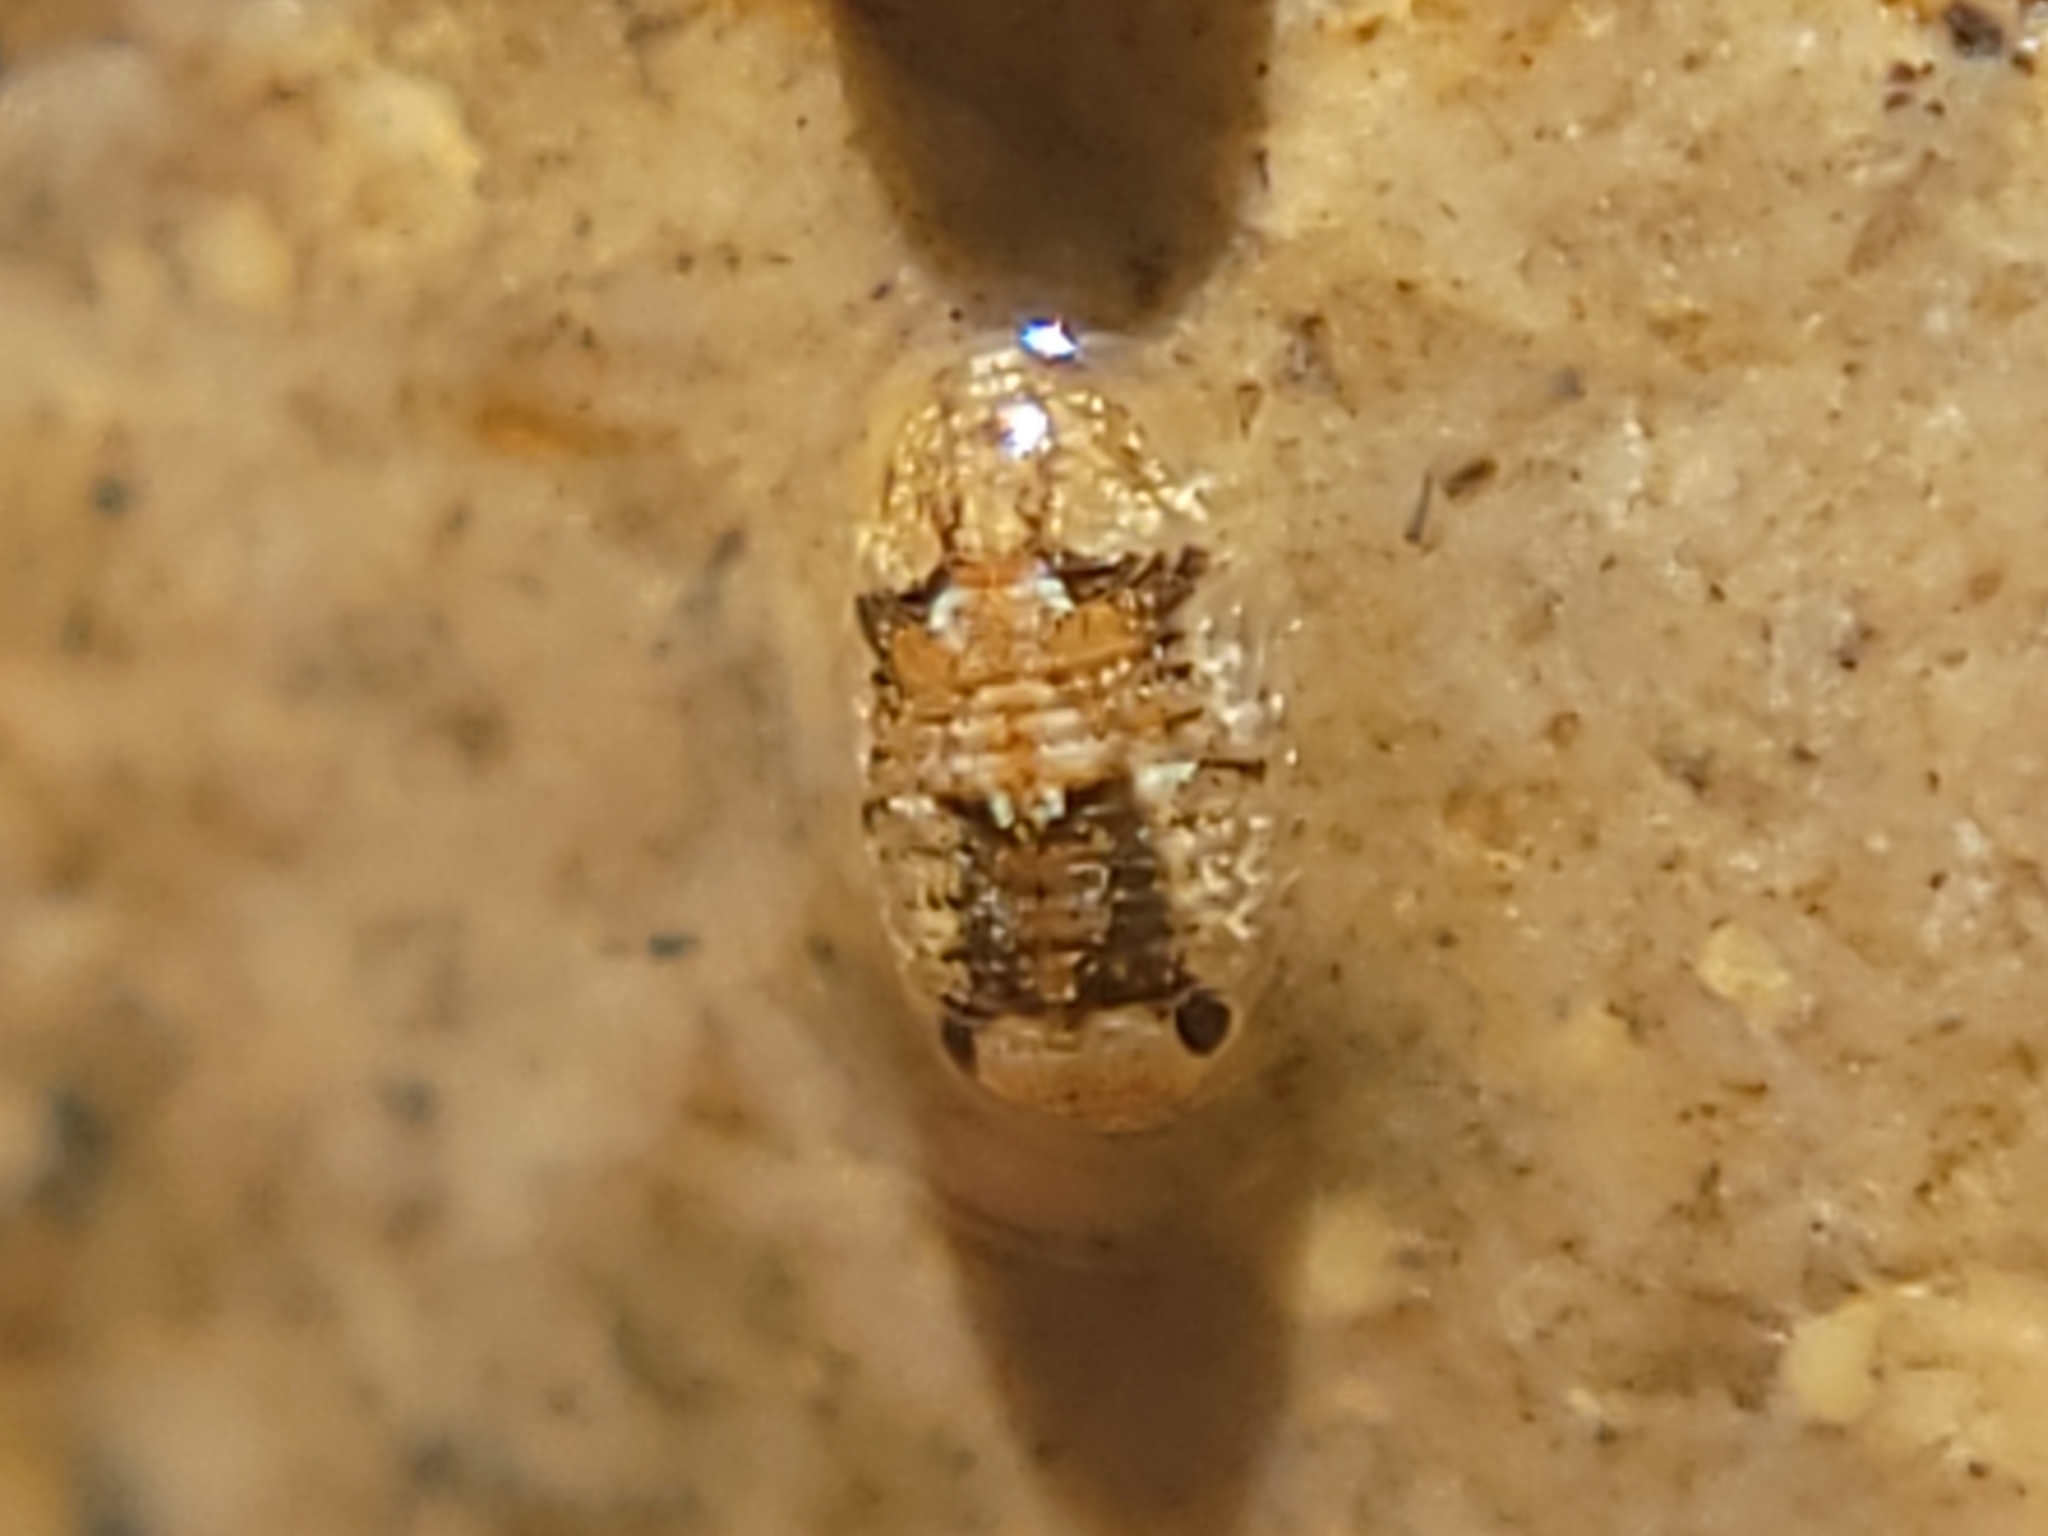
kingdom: Animalia
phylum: Arthropoda
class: Malacostraca
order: Isopoda
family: Sphaeromatidae
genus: Exosphaeroma
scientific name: Exosphaeroma inornata
